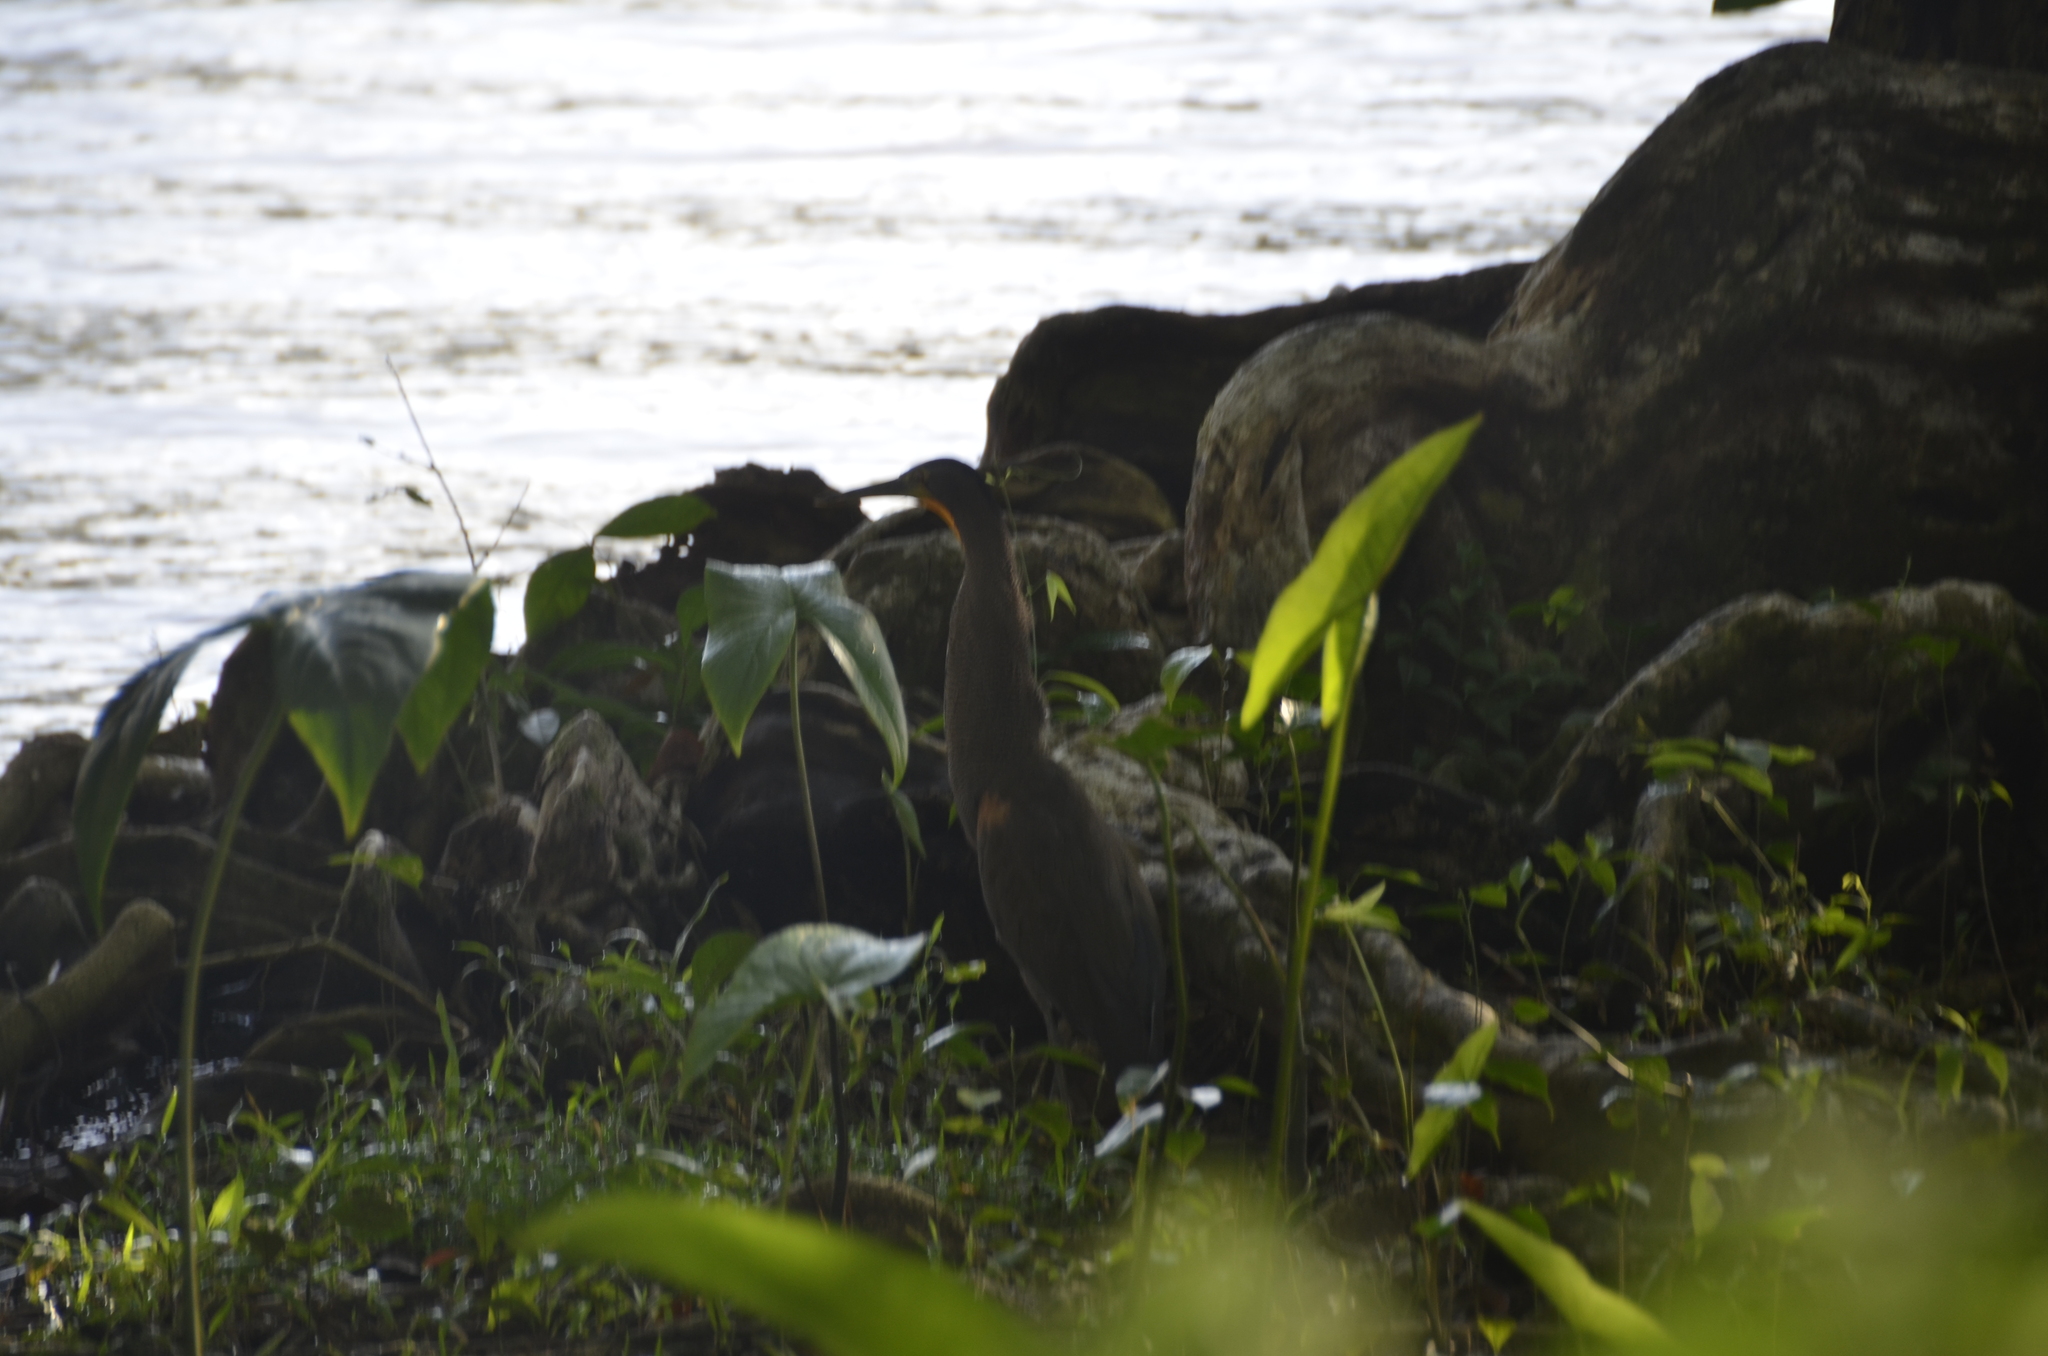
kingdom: Animalia
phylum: Chordata
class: Aves
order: Pelecaniformes
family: Ardeidae
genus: Tigrisoma
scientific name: Tigrisoma mexicanum
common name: Bare-throated tiger-heron
